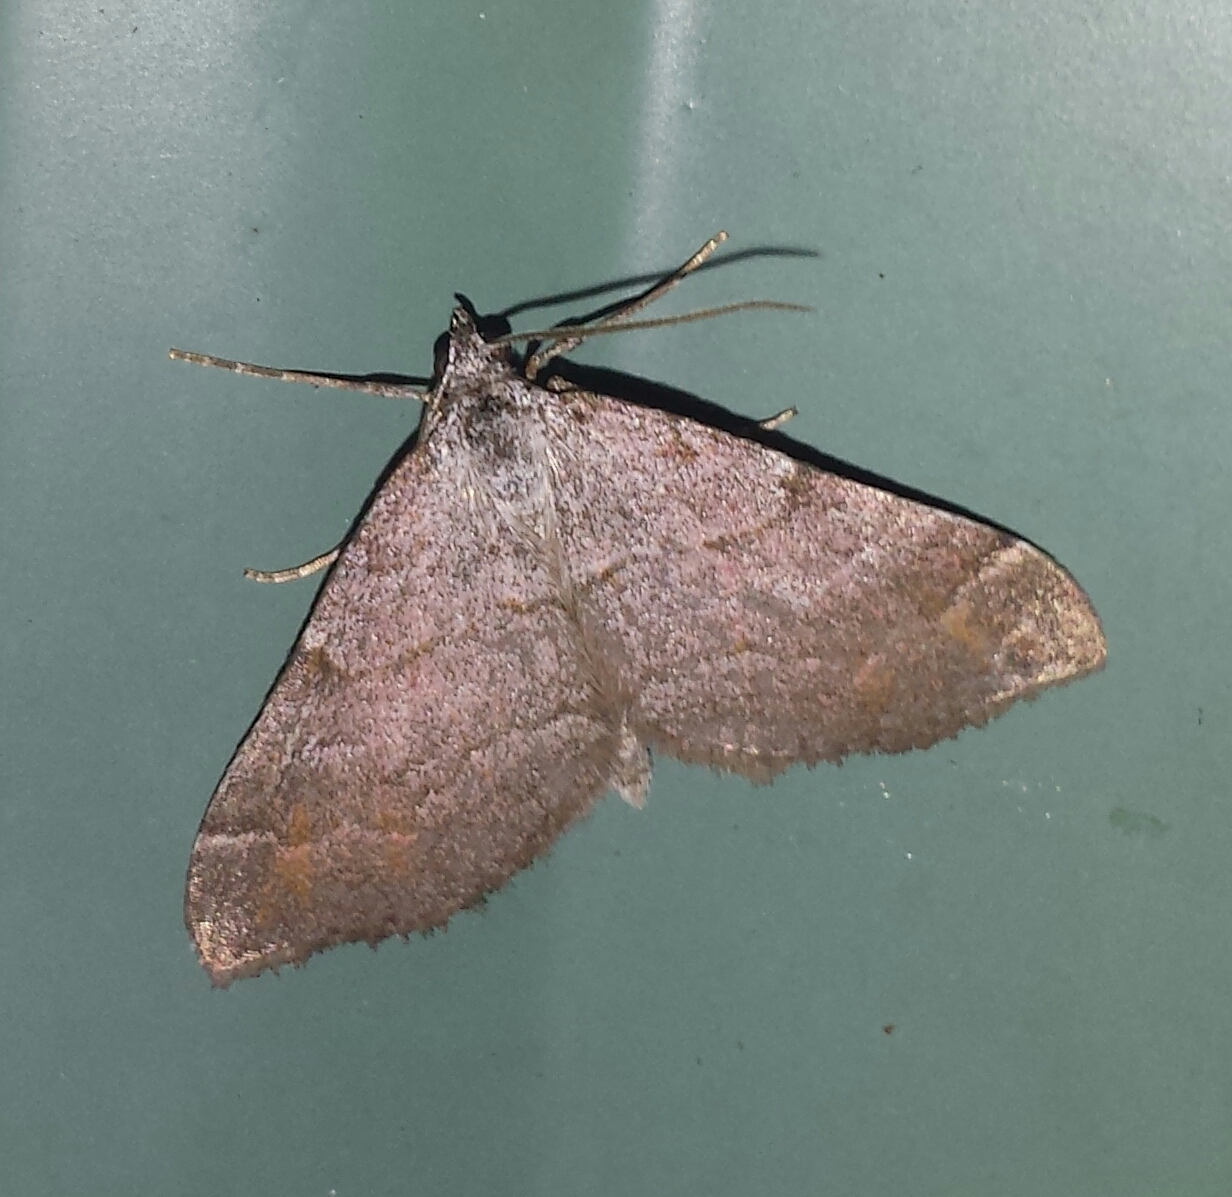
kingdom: Animalia
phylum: Arthropoda
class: Insecta
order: Lepidoptera
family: Geometridae
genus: Carsia
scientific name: Carsia sororiata
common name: Manchester treble-bar
